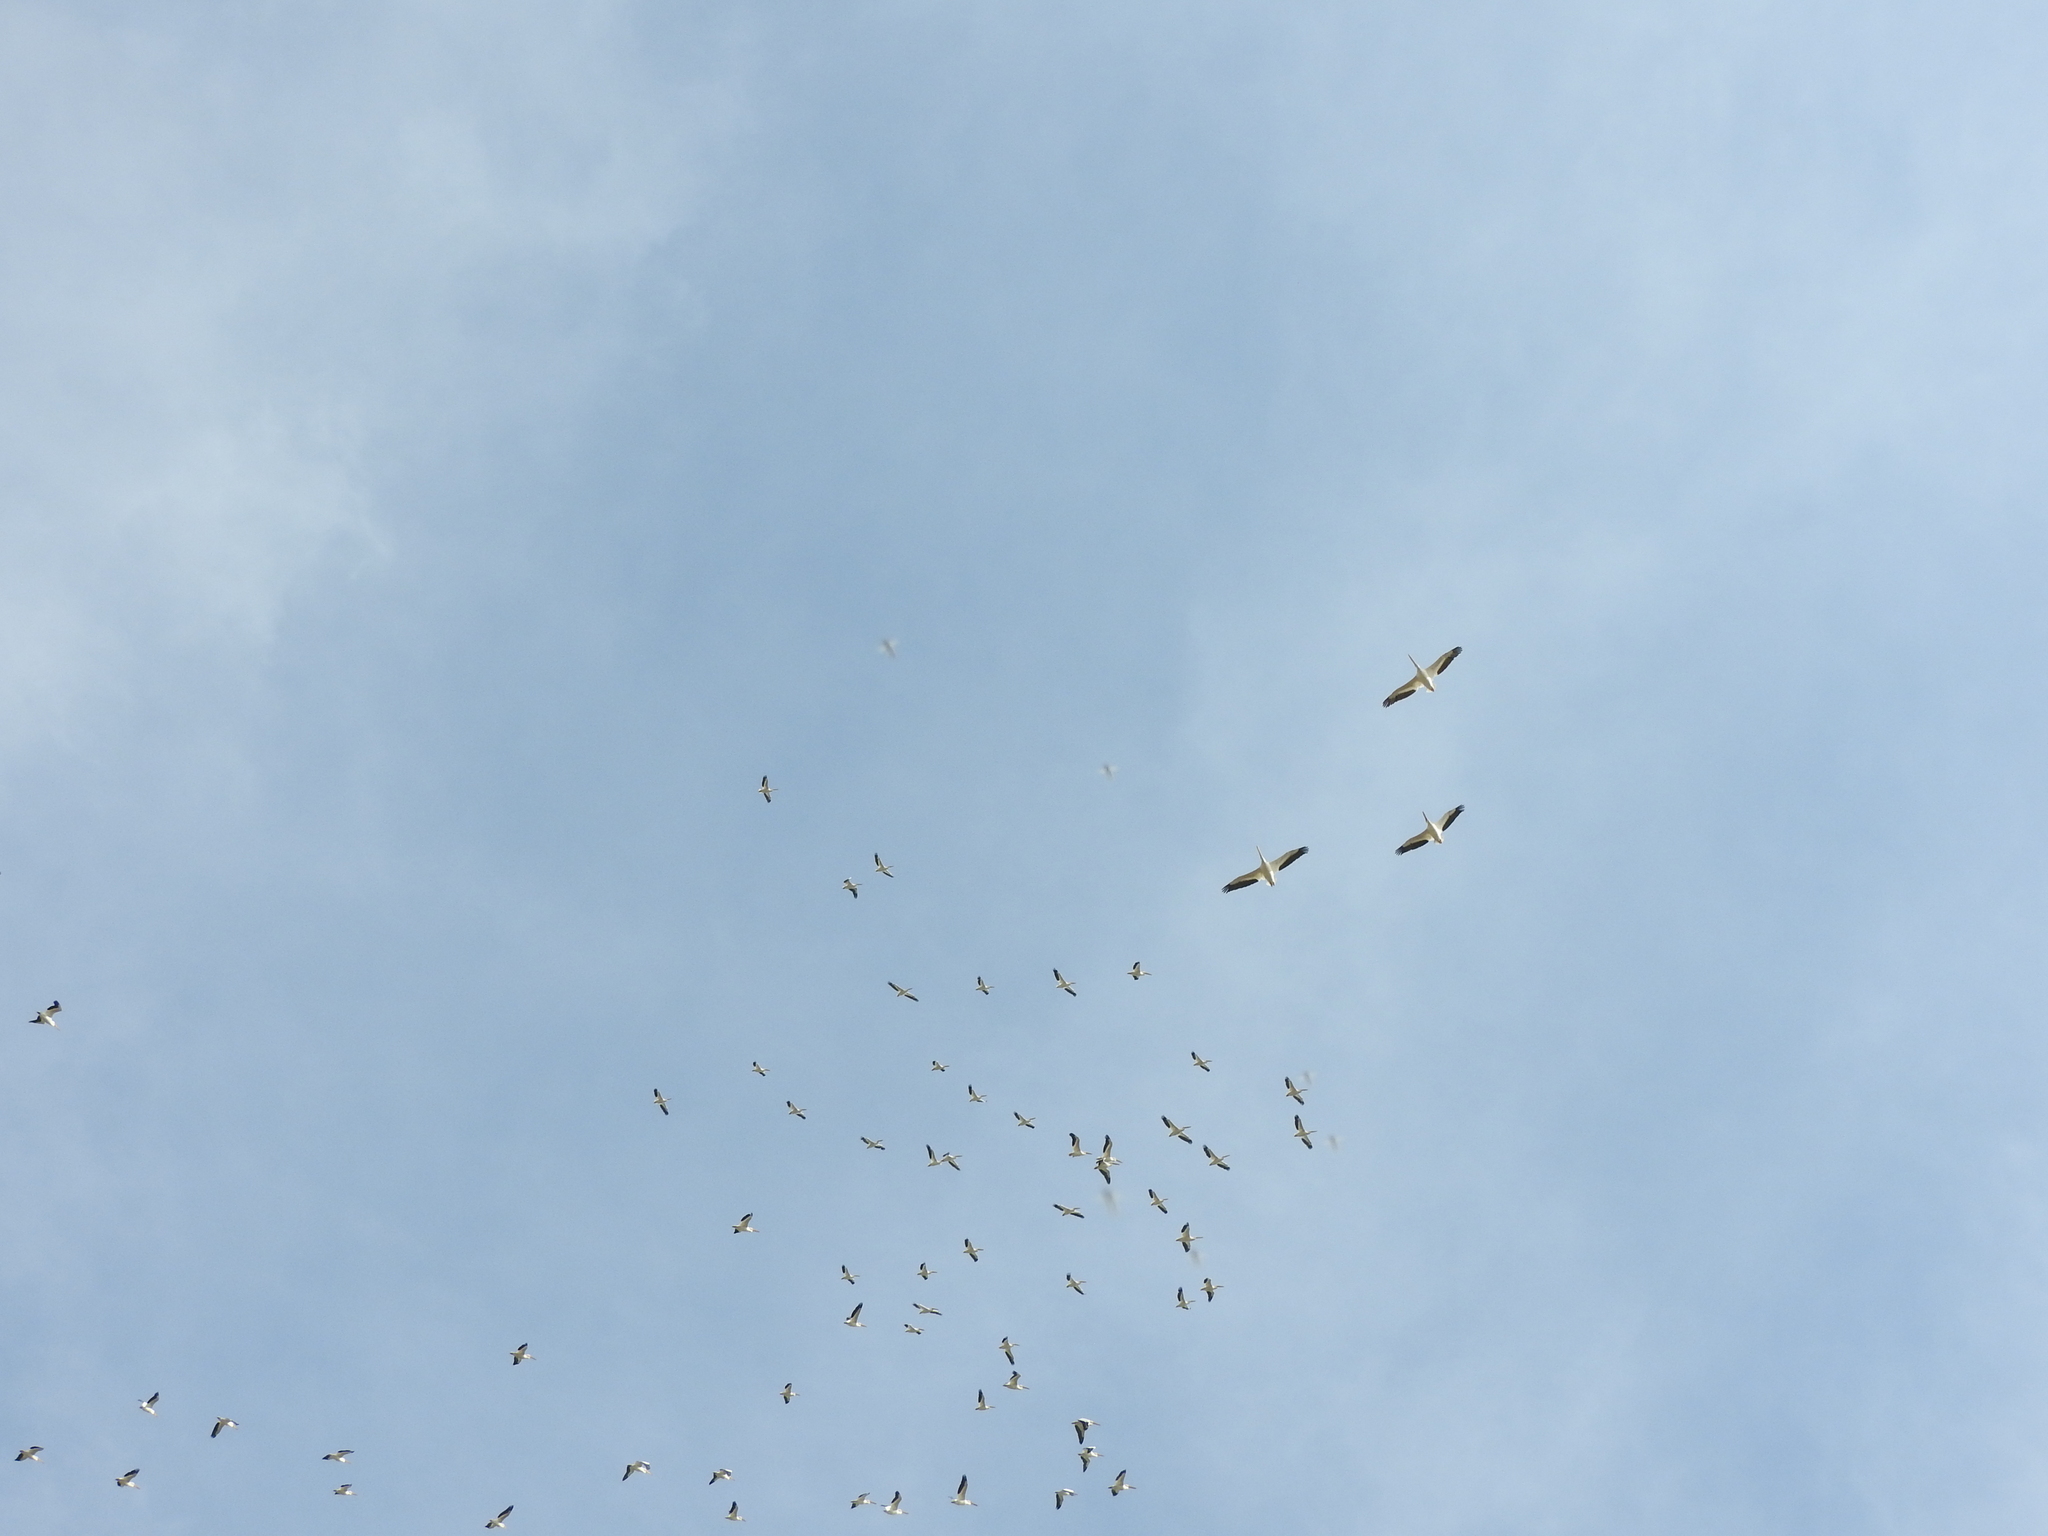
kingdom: Animalia
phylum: Chordata
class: Aves
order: Pelecaniformes
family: Pelecanidae
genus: Pelecanus
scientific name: Pelecanus erythrorhynchos
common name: American white pelican
